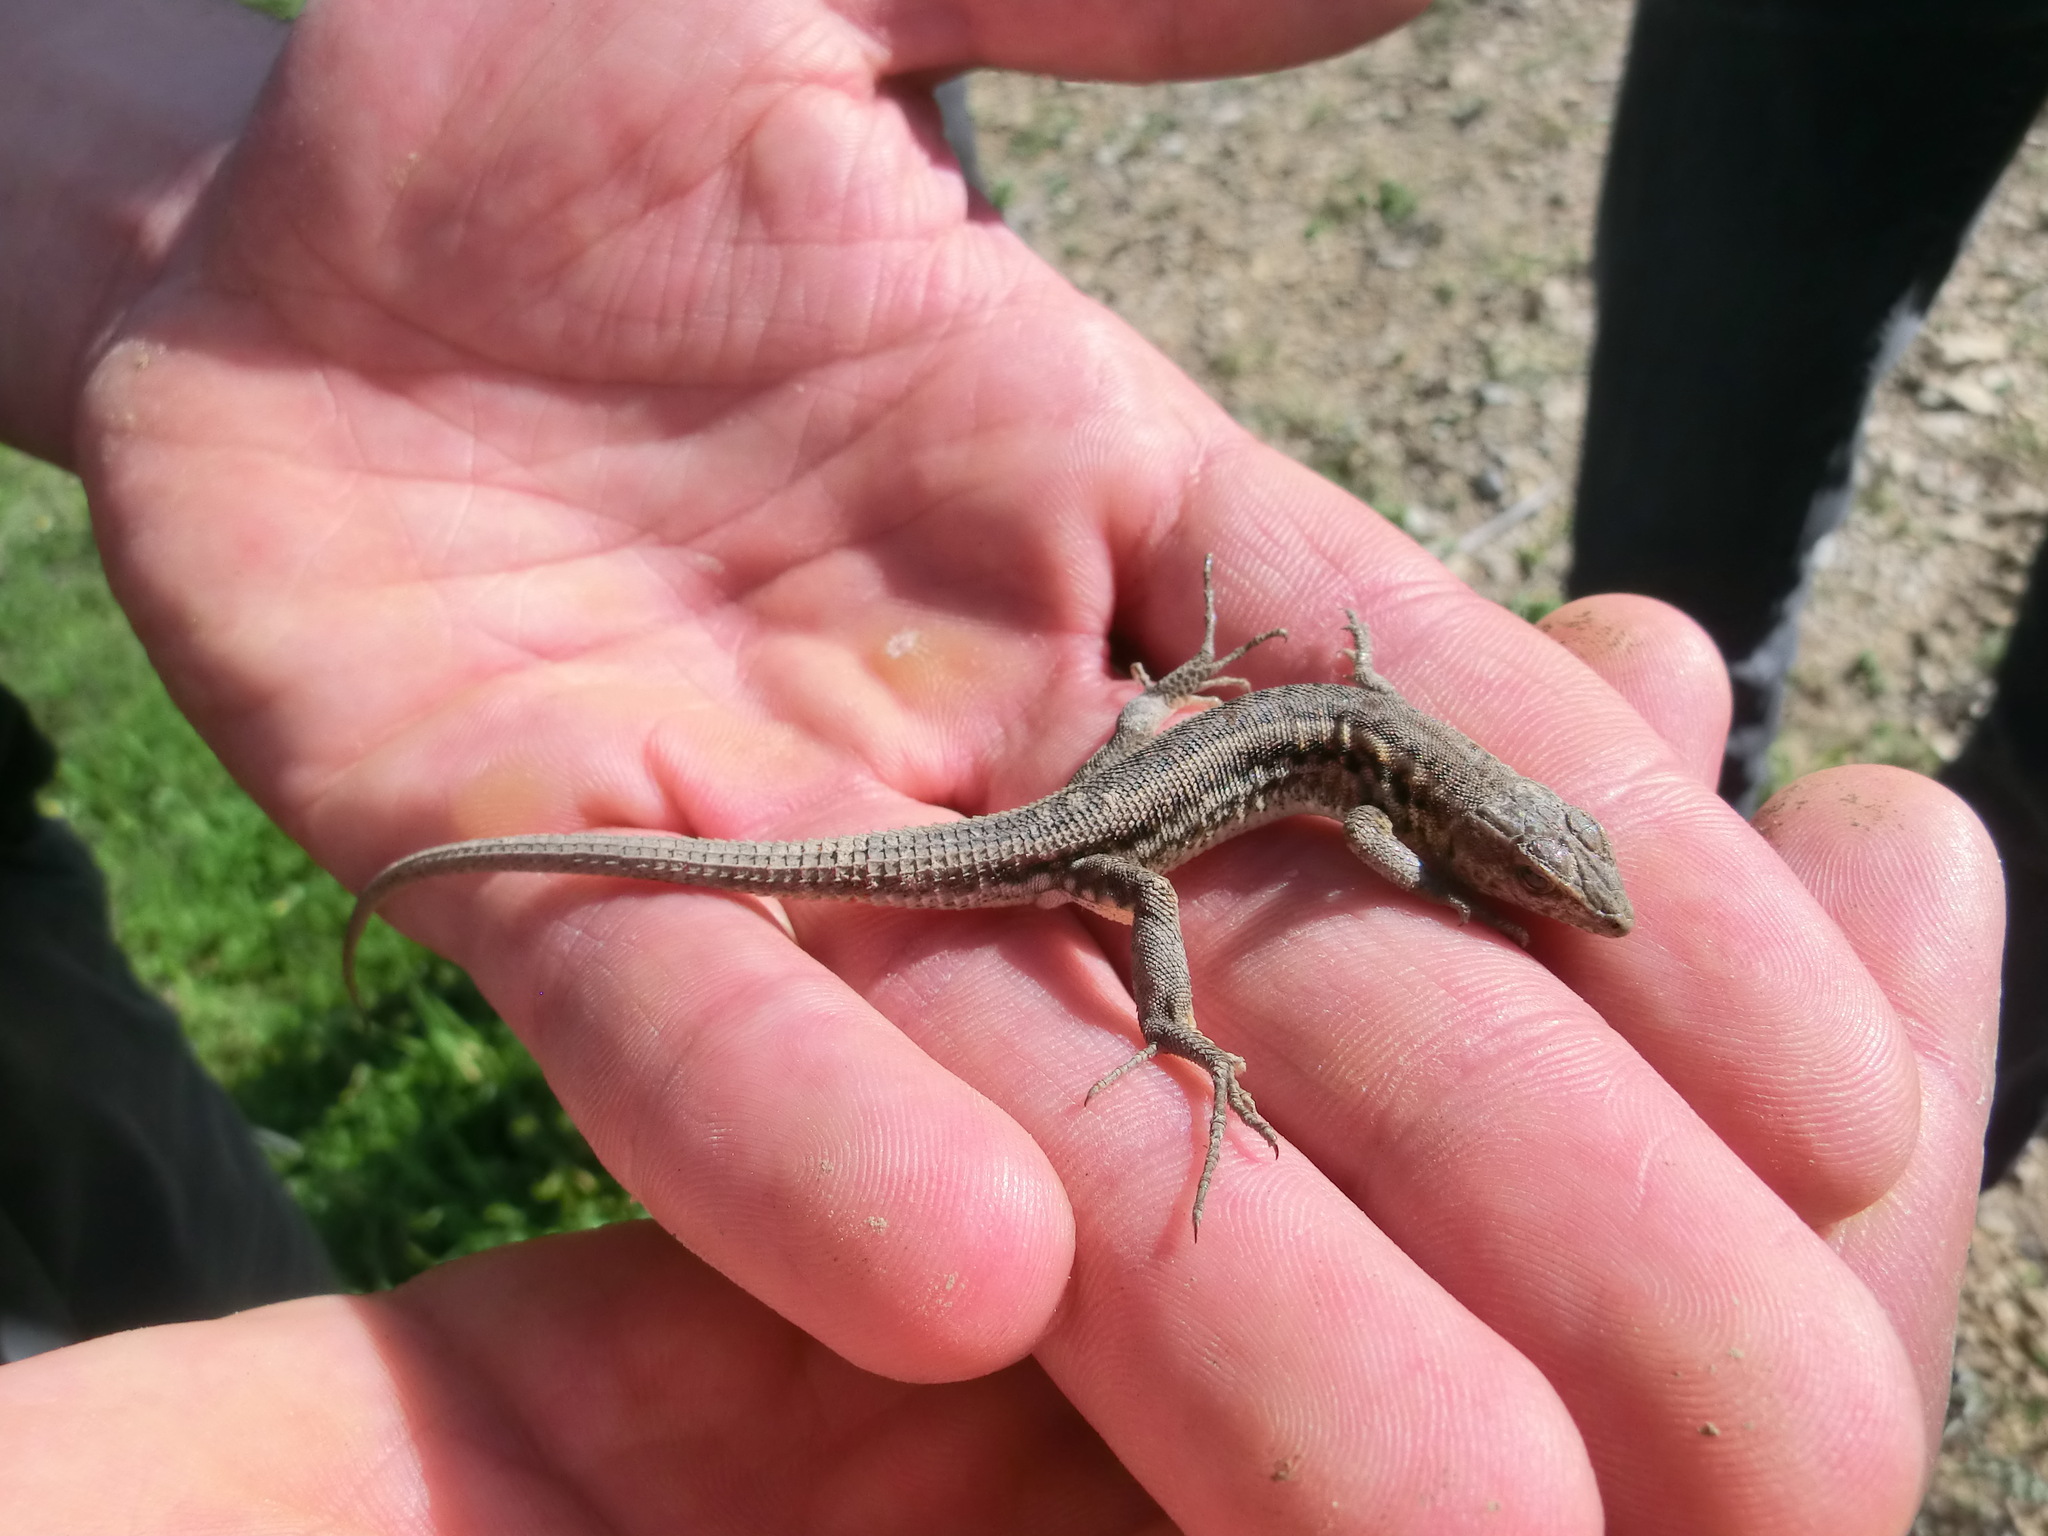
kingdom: Animalia
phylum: Chordata
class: Squamata
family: Lacertidae
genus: Acanthodactylus
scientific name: Acanthodactylus schreiberi
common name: Schreiber's fringe-fingered lizard
